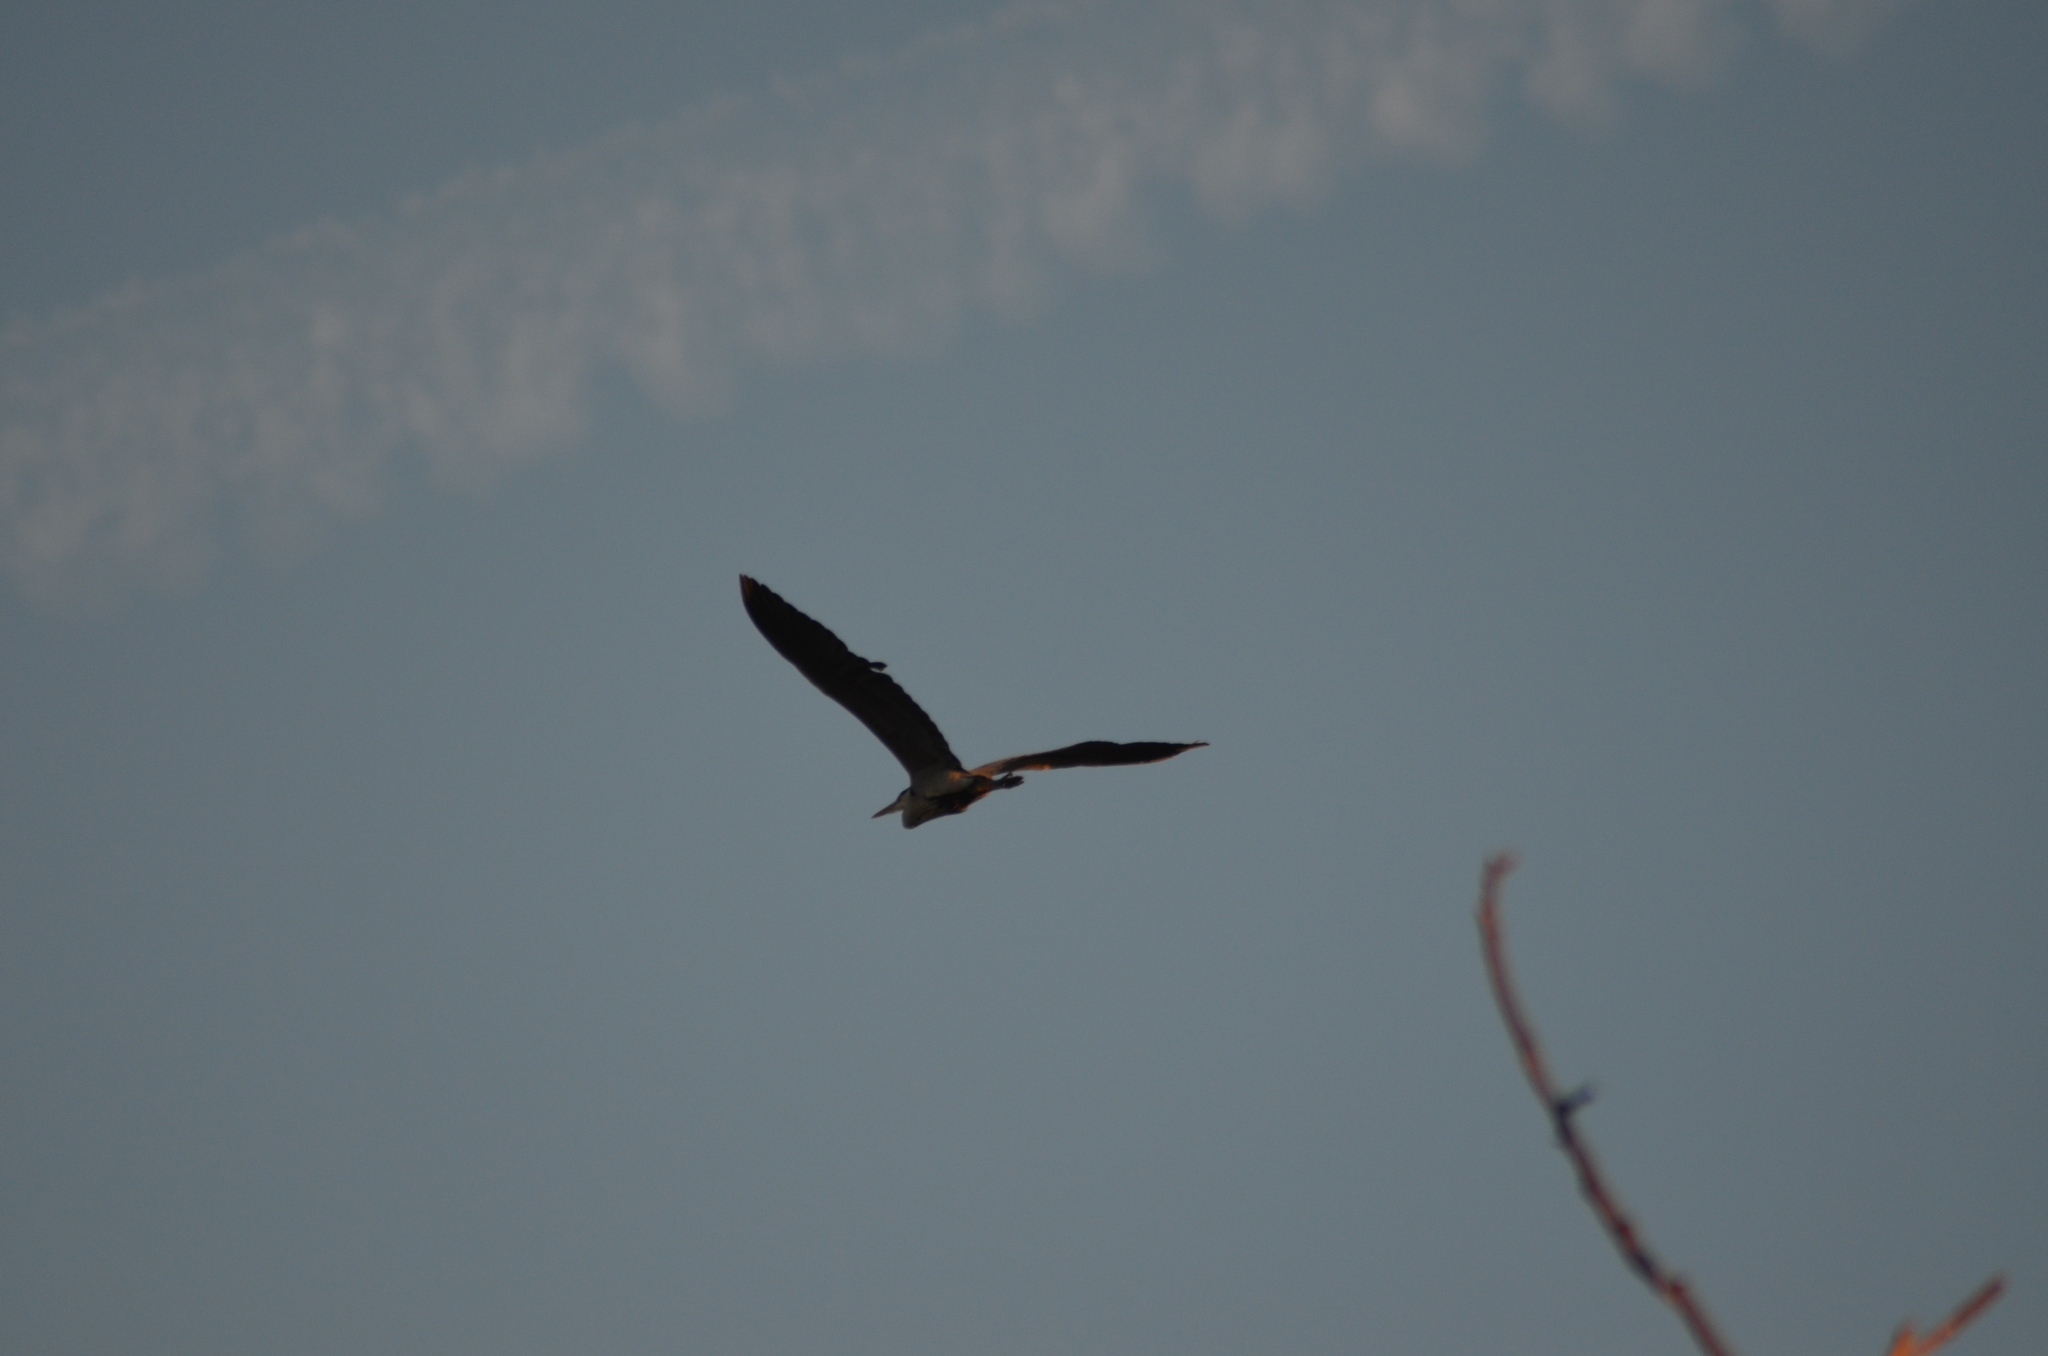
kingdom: Animalia
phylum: Chordata
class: Aves
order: Pelecaniformes
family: Ardeidae
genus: Ardea
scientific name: Ardea cinerea
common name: Grey heron
